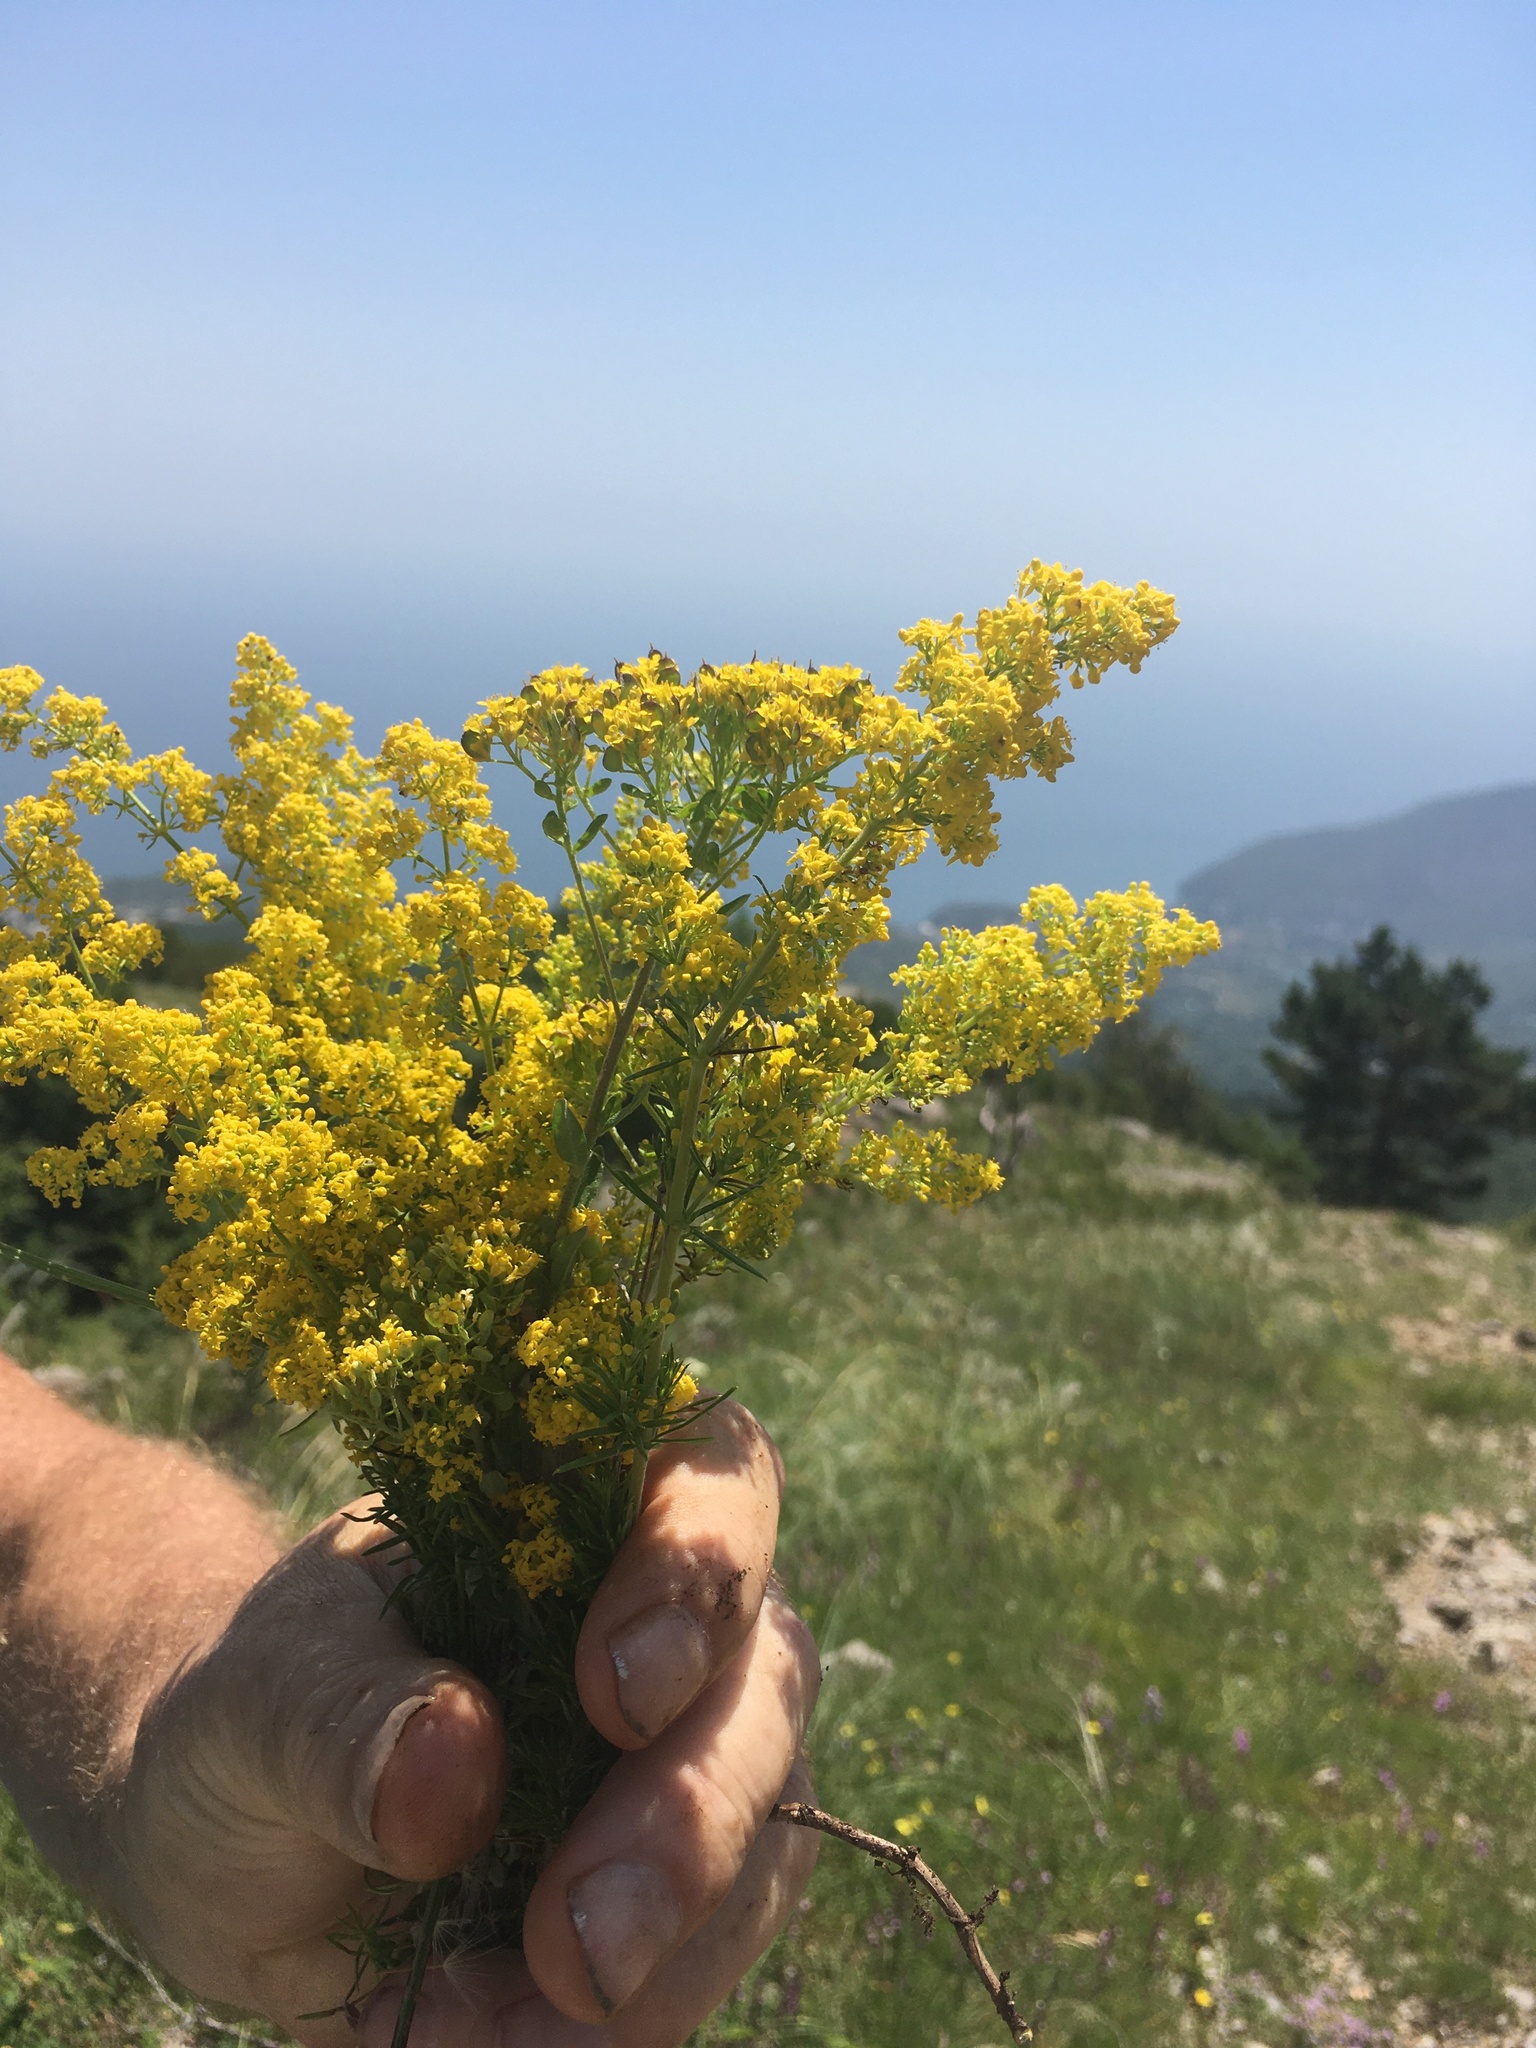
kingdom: Plantae
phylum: Tracheophyta
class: Magnoliopsida
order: Gentianales
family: Rubiaceae
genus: Galium
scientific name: Galium verum
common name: Lady's bedstraw
